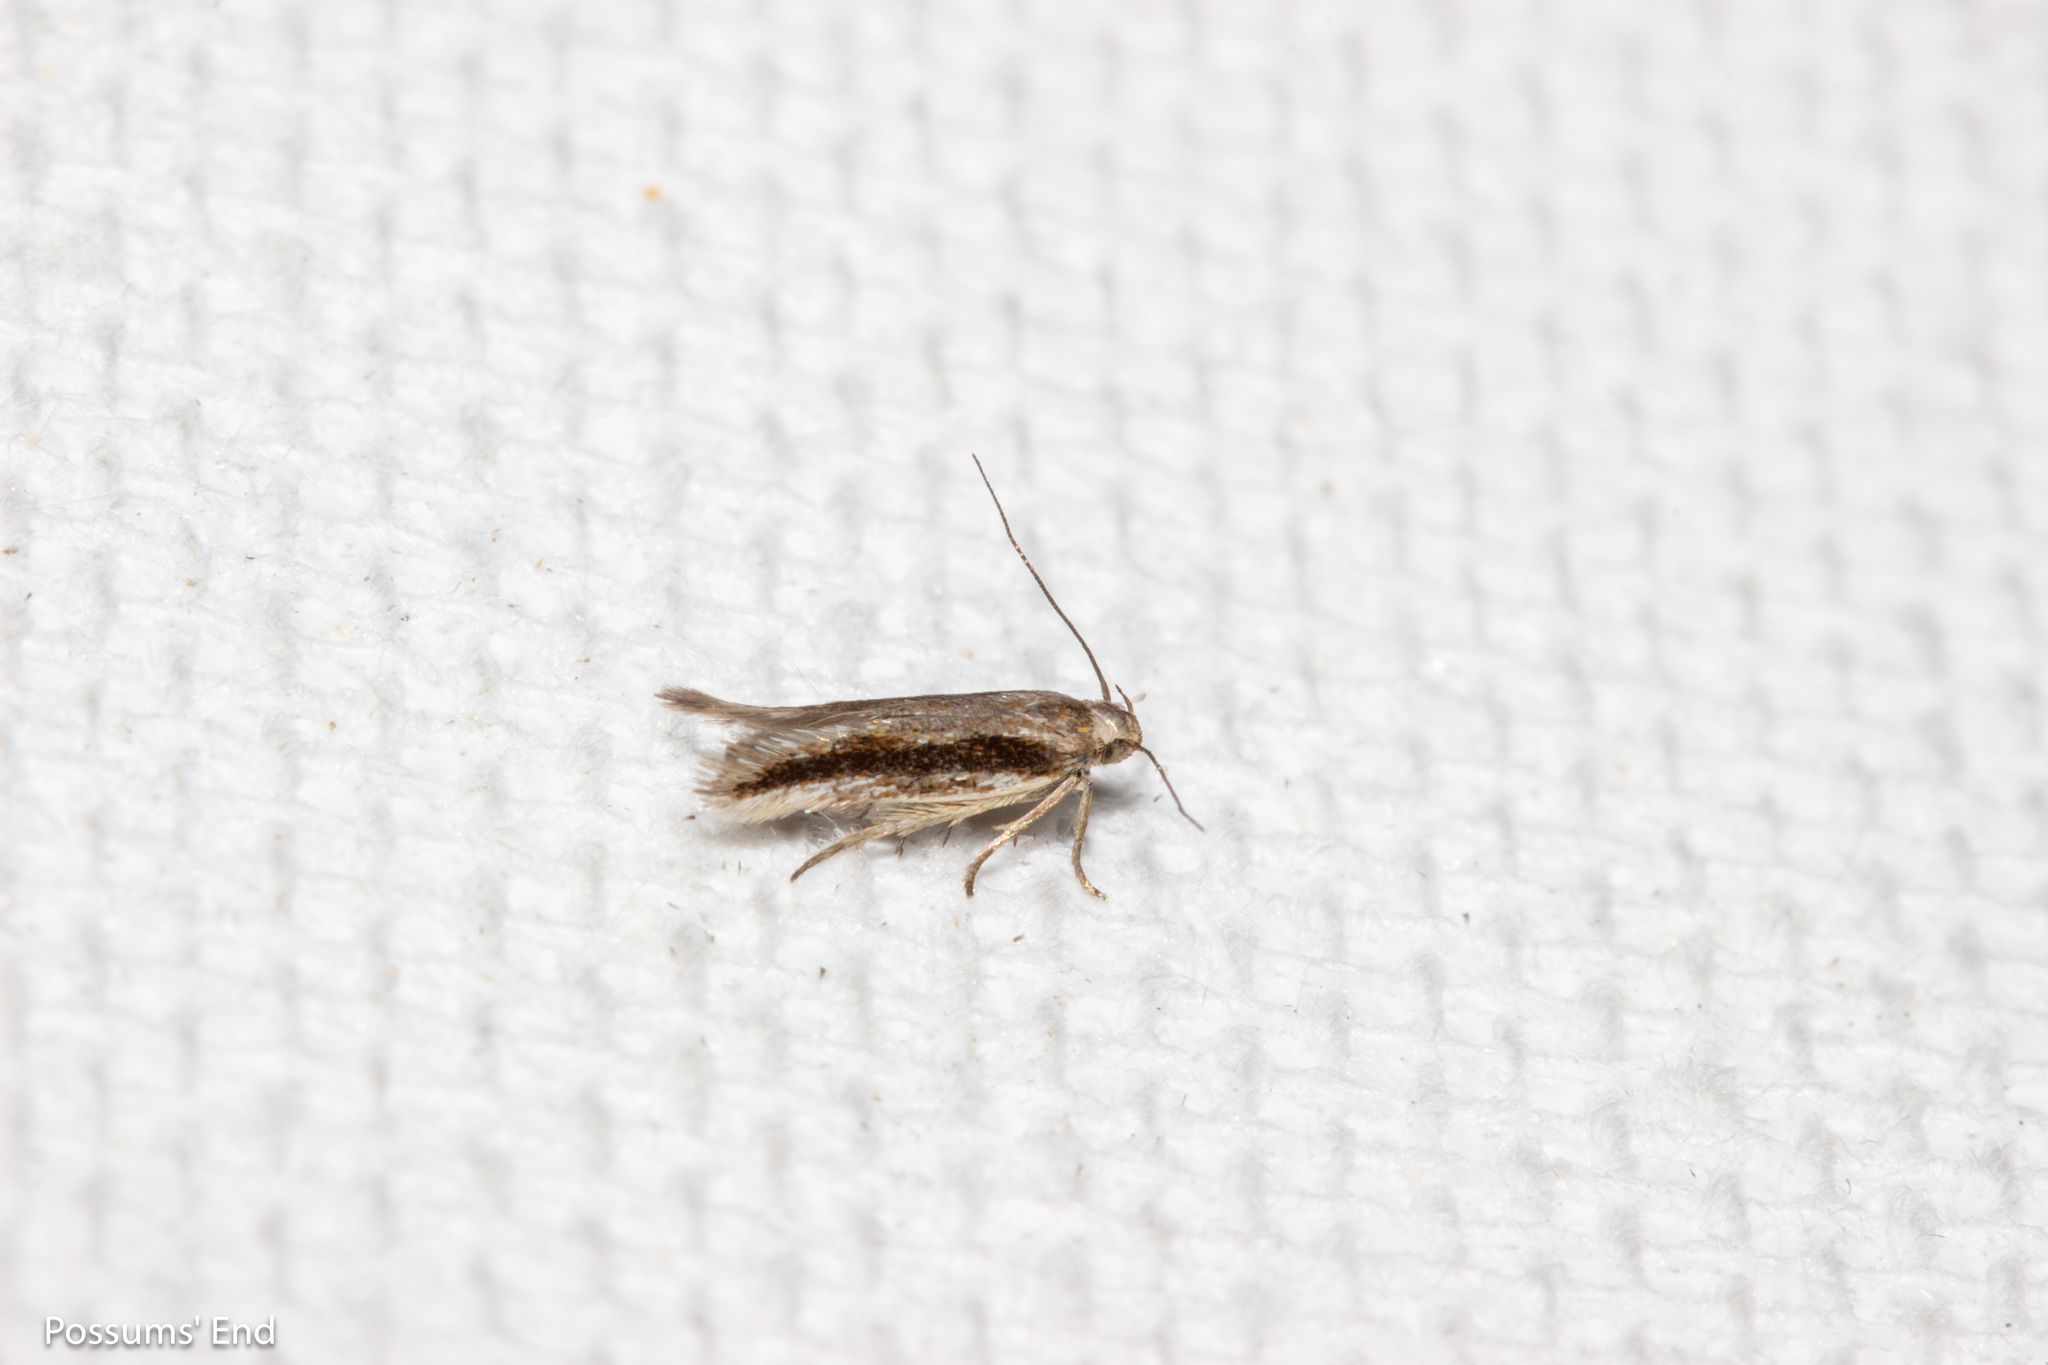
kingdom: Animalia
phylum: Arthropoda
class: Insecta
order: Lepidoptera
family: Gelechiidae
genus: Kiwaia
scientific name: Kiwaia monophragma
